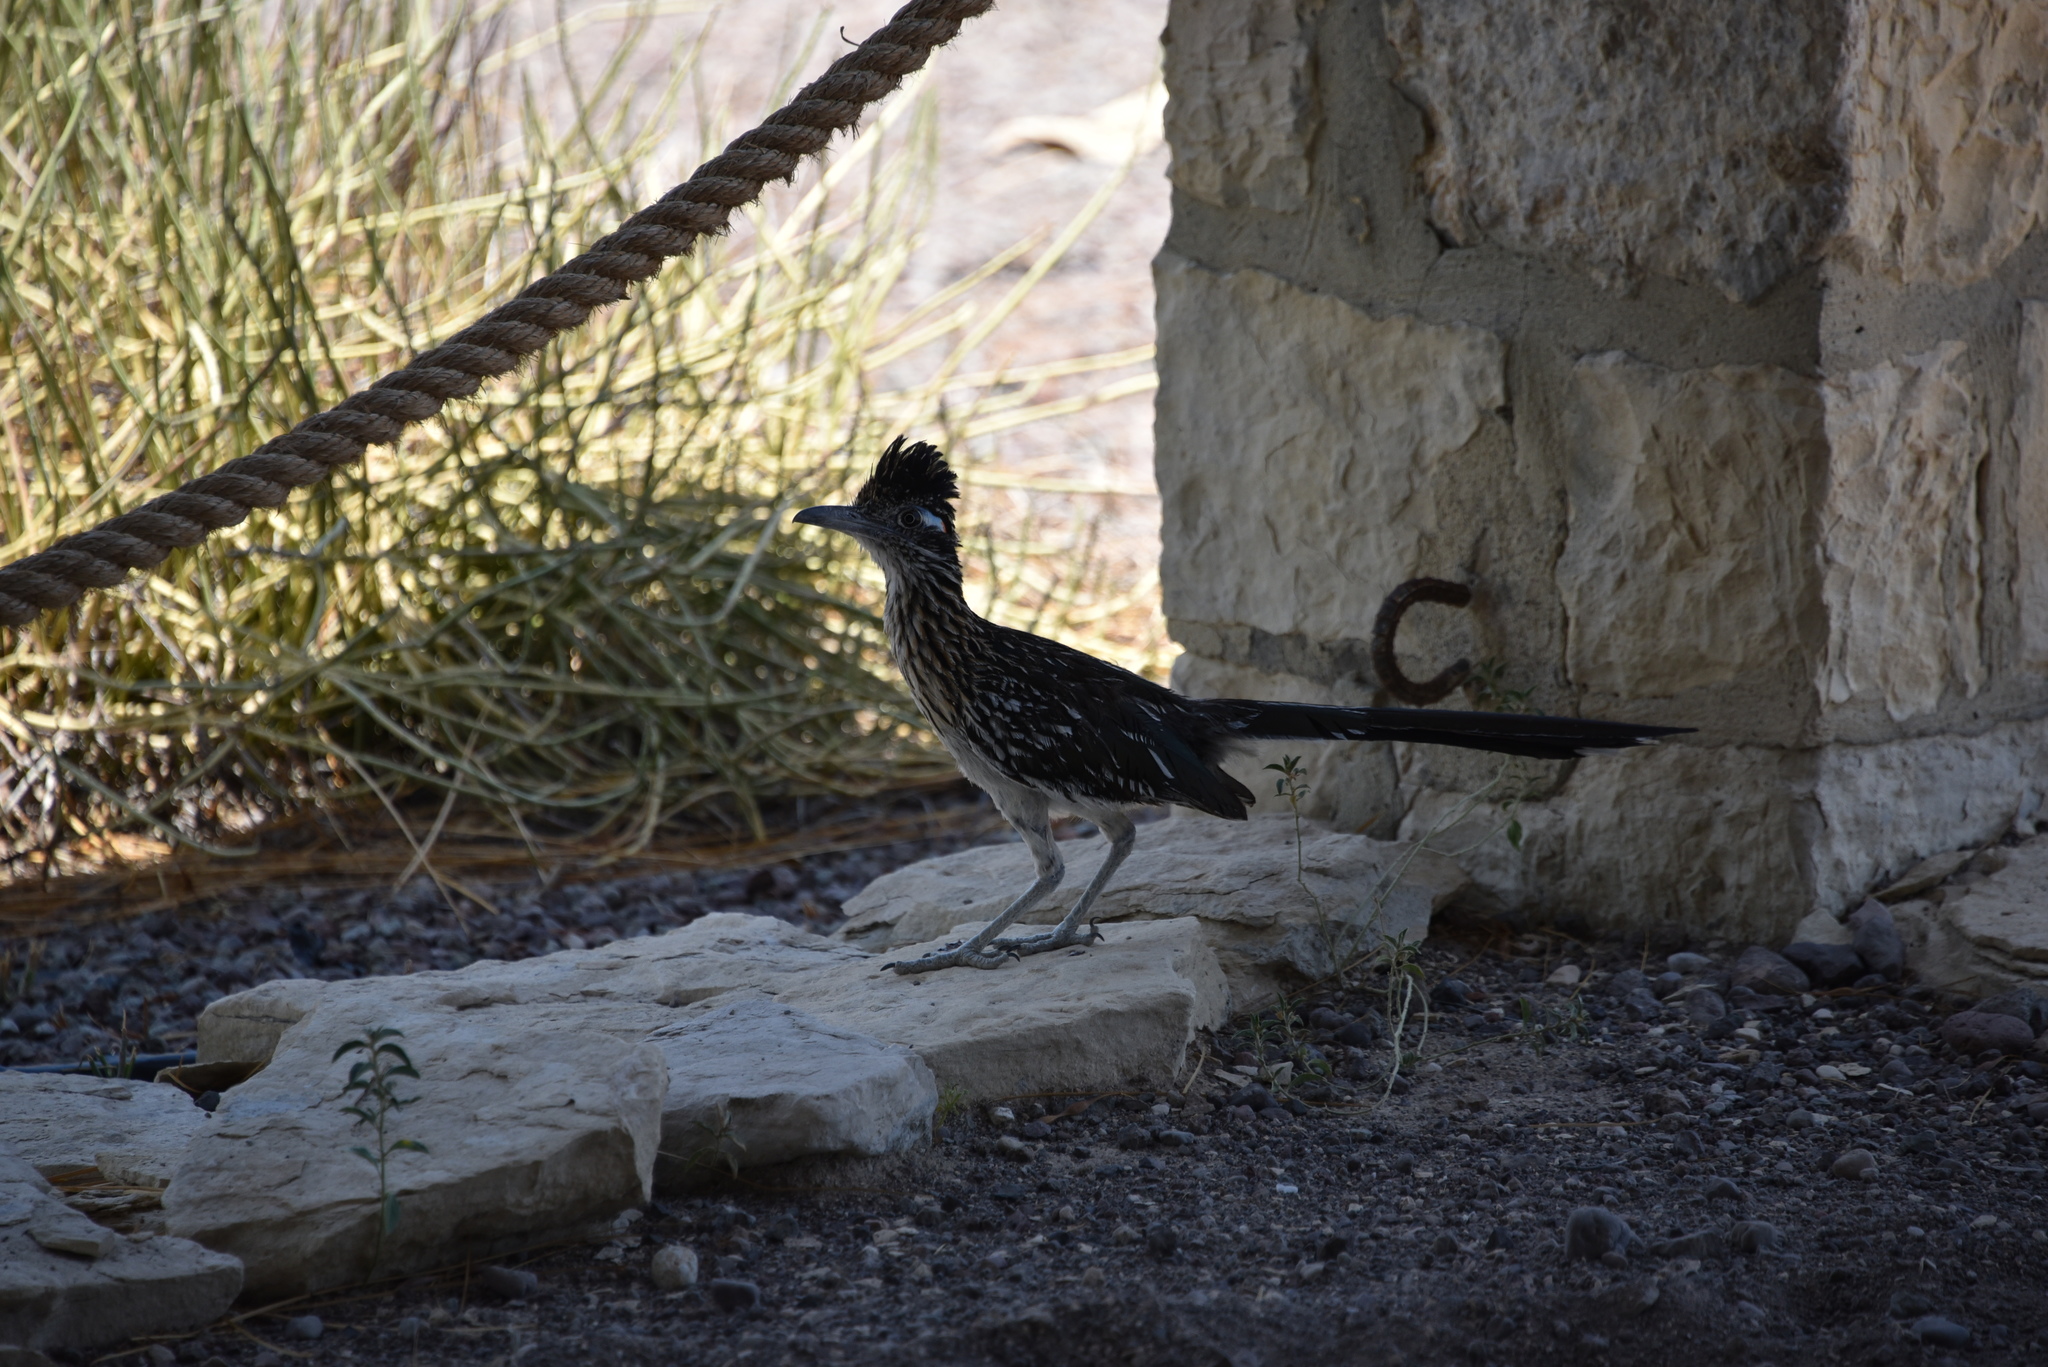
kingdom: Animalia
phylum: Chordata
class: Aves
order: Cuculiformes
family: Cuculidae
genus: Geococcyx
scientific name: Geococcyx californianus
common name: Greater roadrunner
